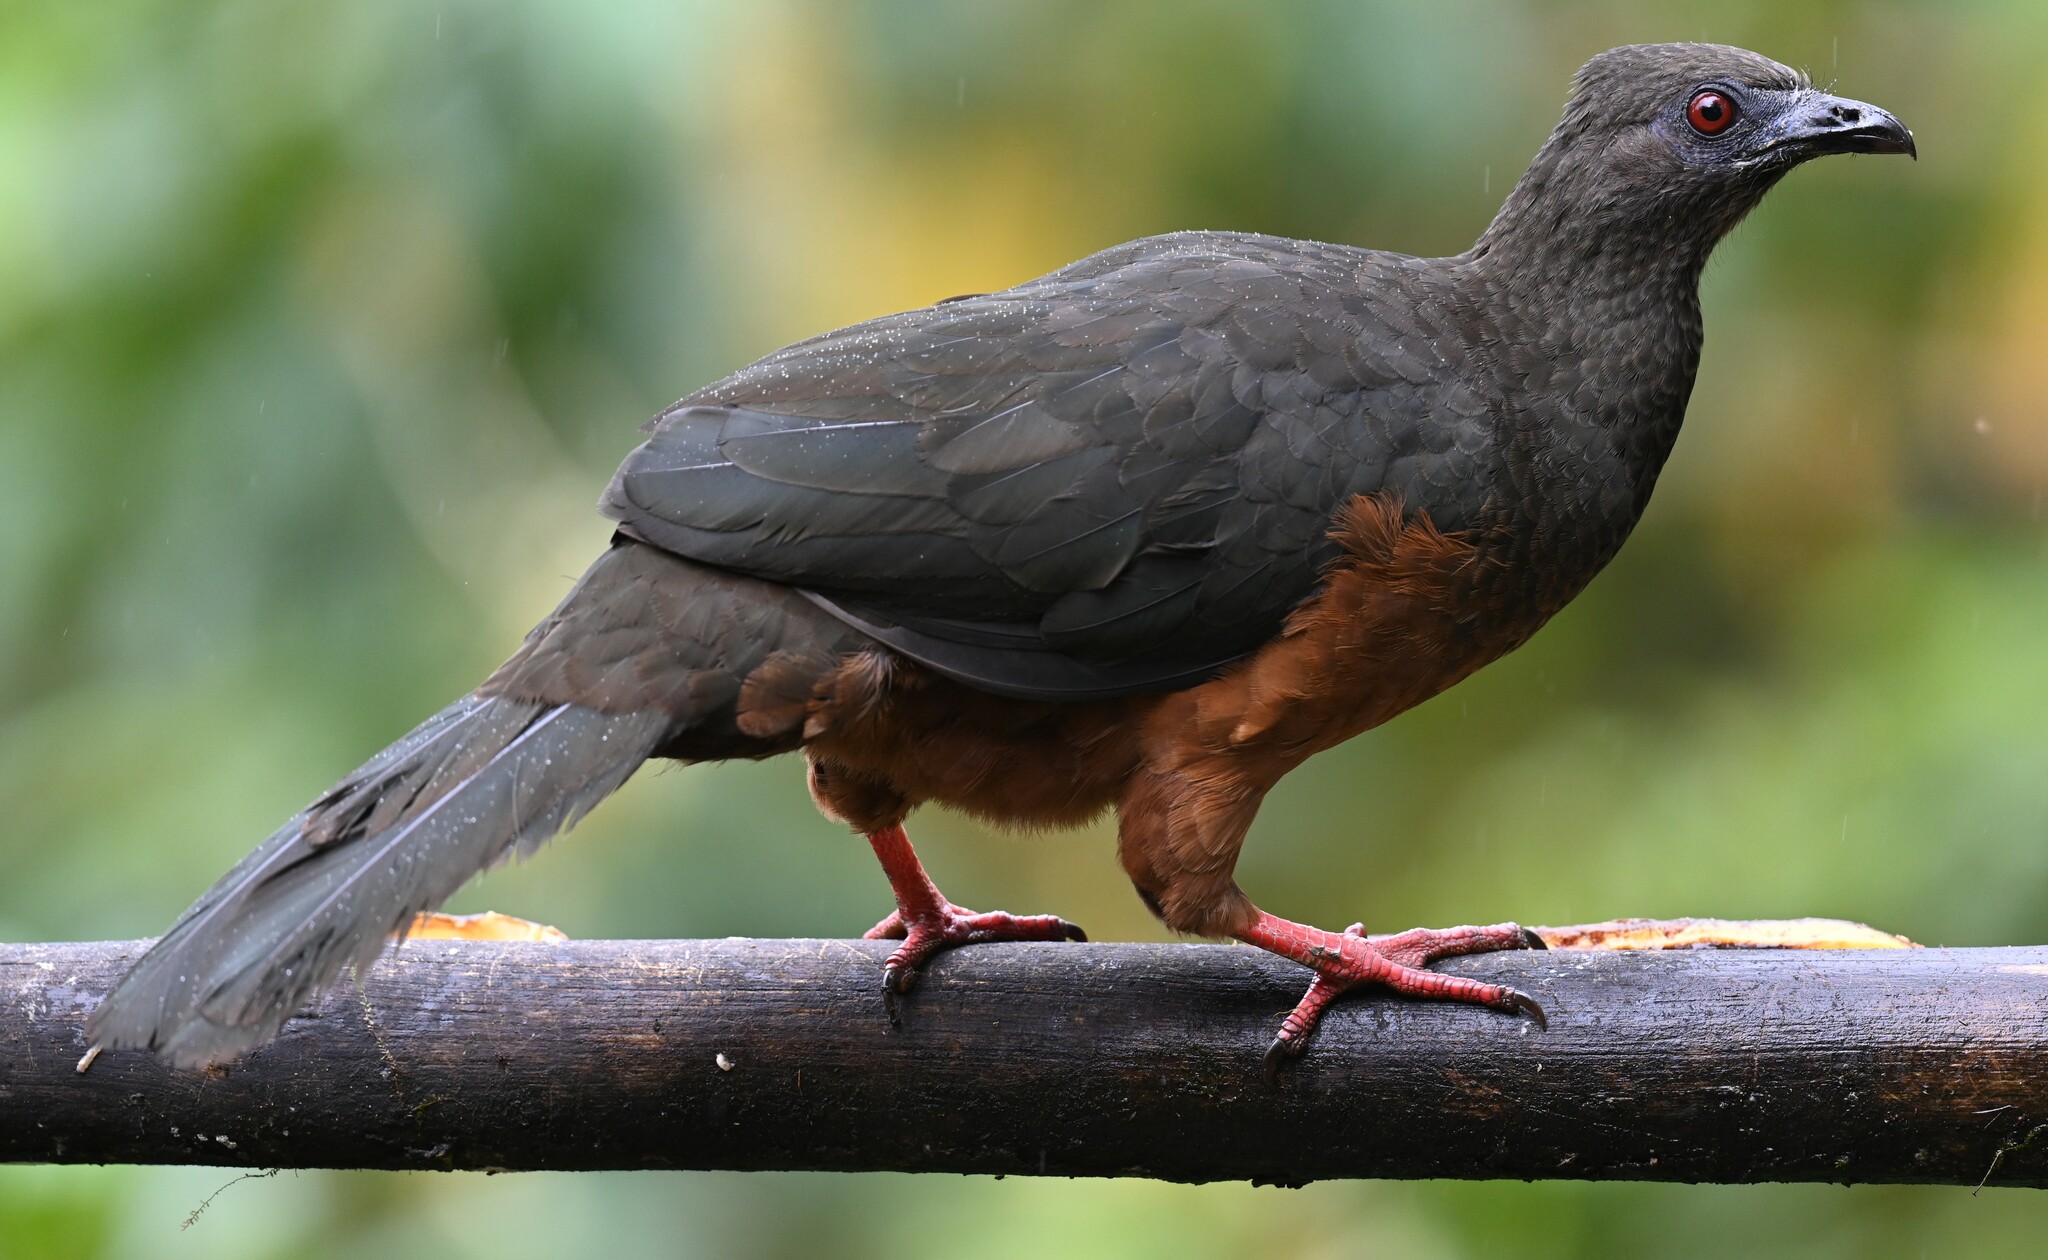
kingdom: Animalia
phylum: Chordata
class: Aves
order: Galliformes
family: Cracidae
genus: Chamaepetes
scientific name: Chamaepetes goudotii
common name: Sickle-winged guan
